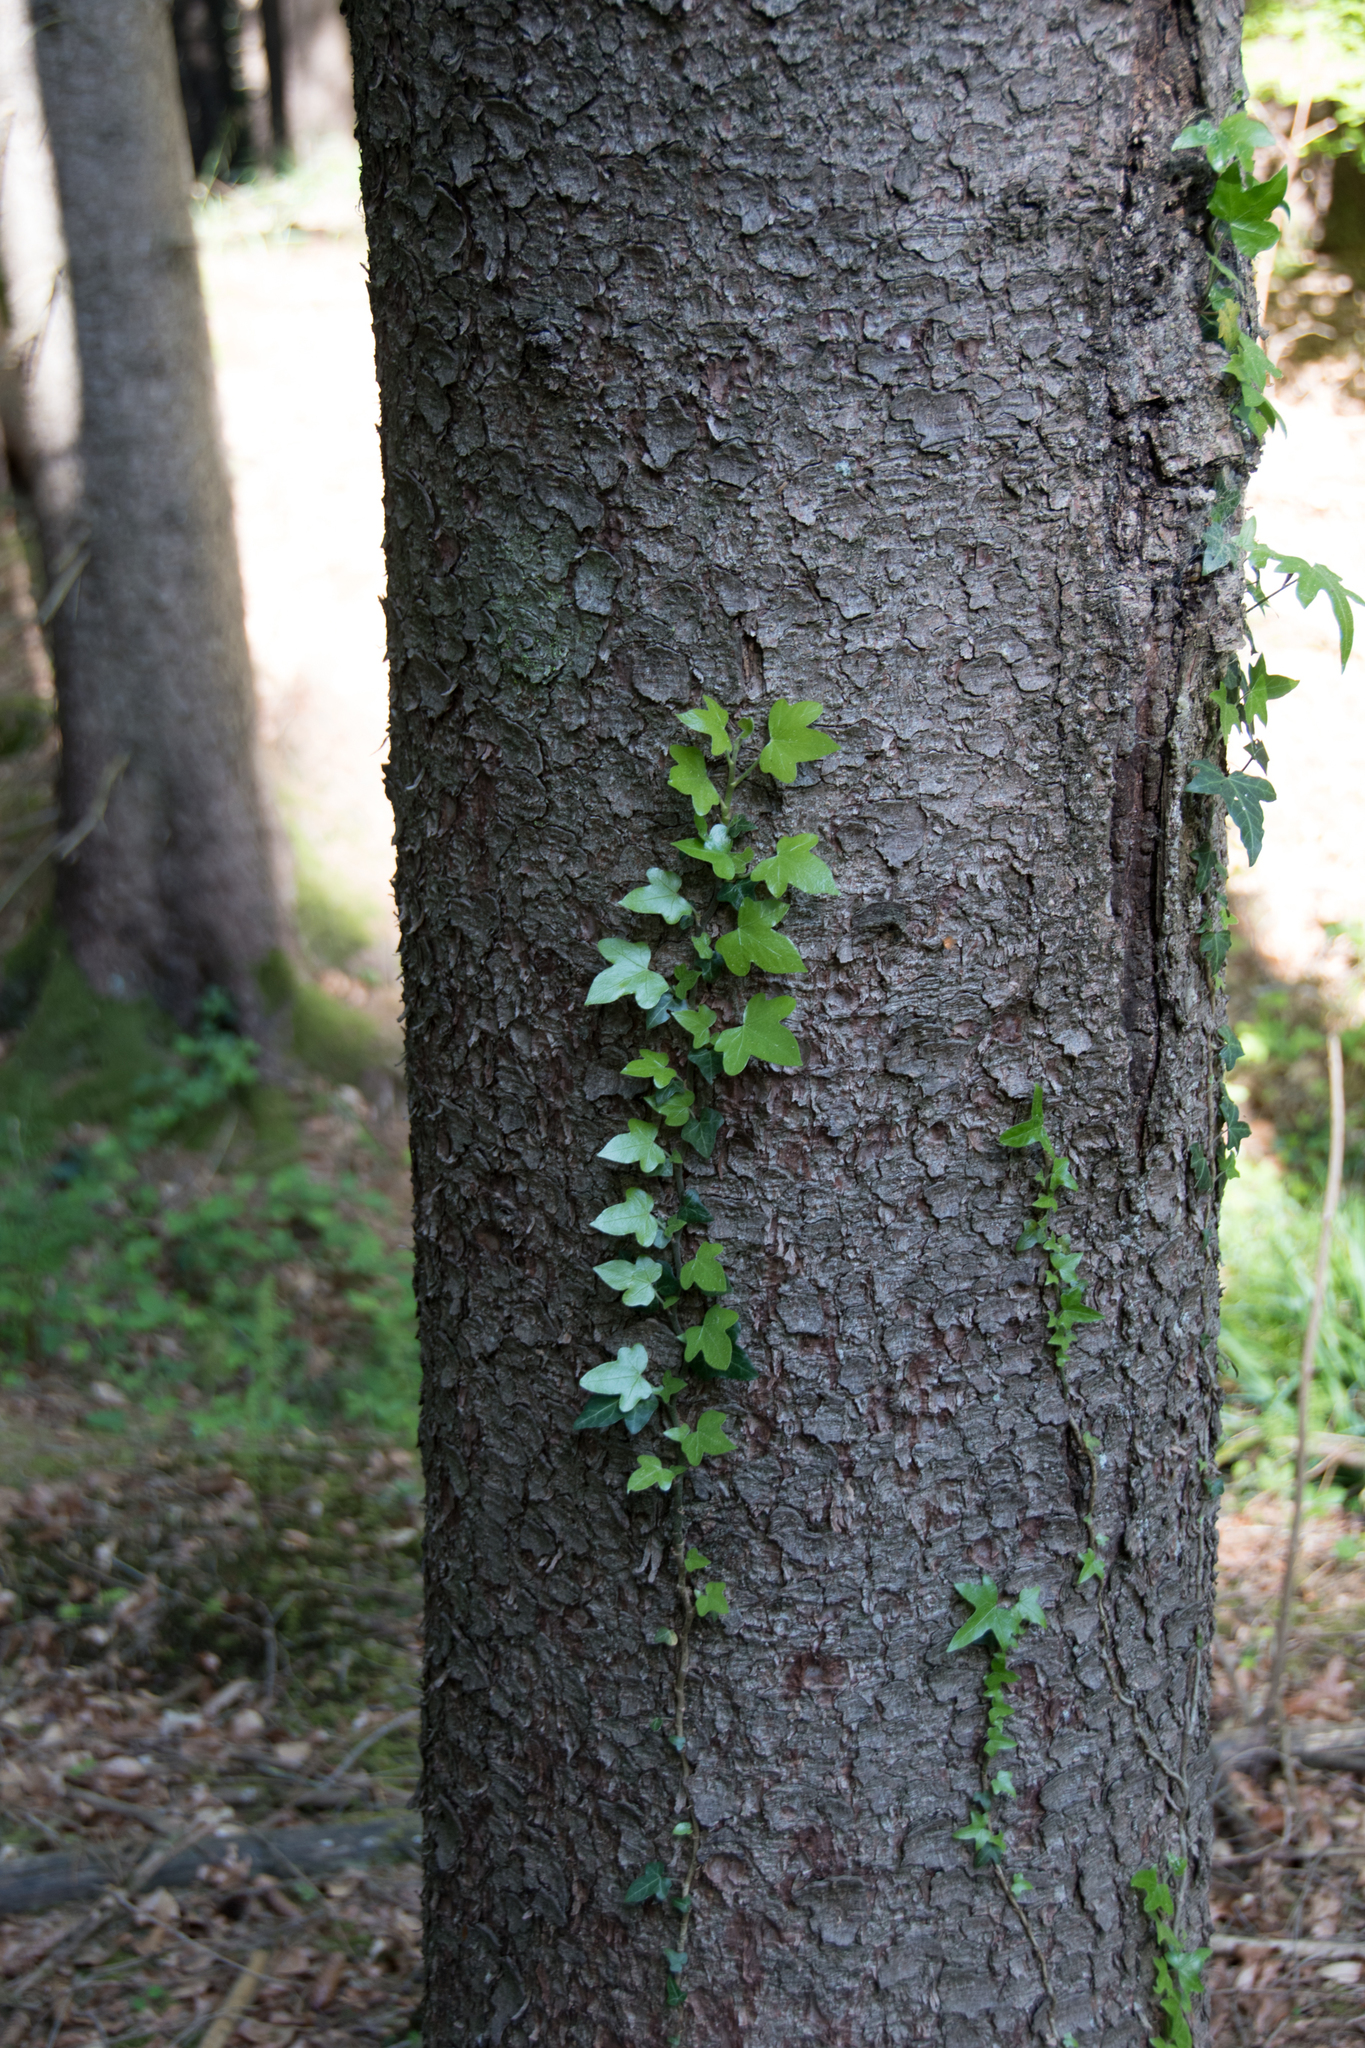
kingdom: Plantae
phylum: Tracheophyta
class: Magnoliopsida
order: Apiales
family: Araliaceae
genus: Hedera
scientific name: Hedera helix
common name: Ivy
